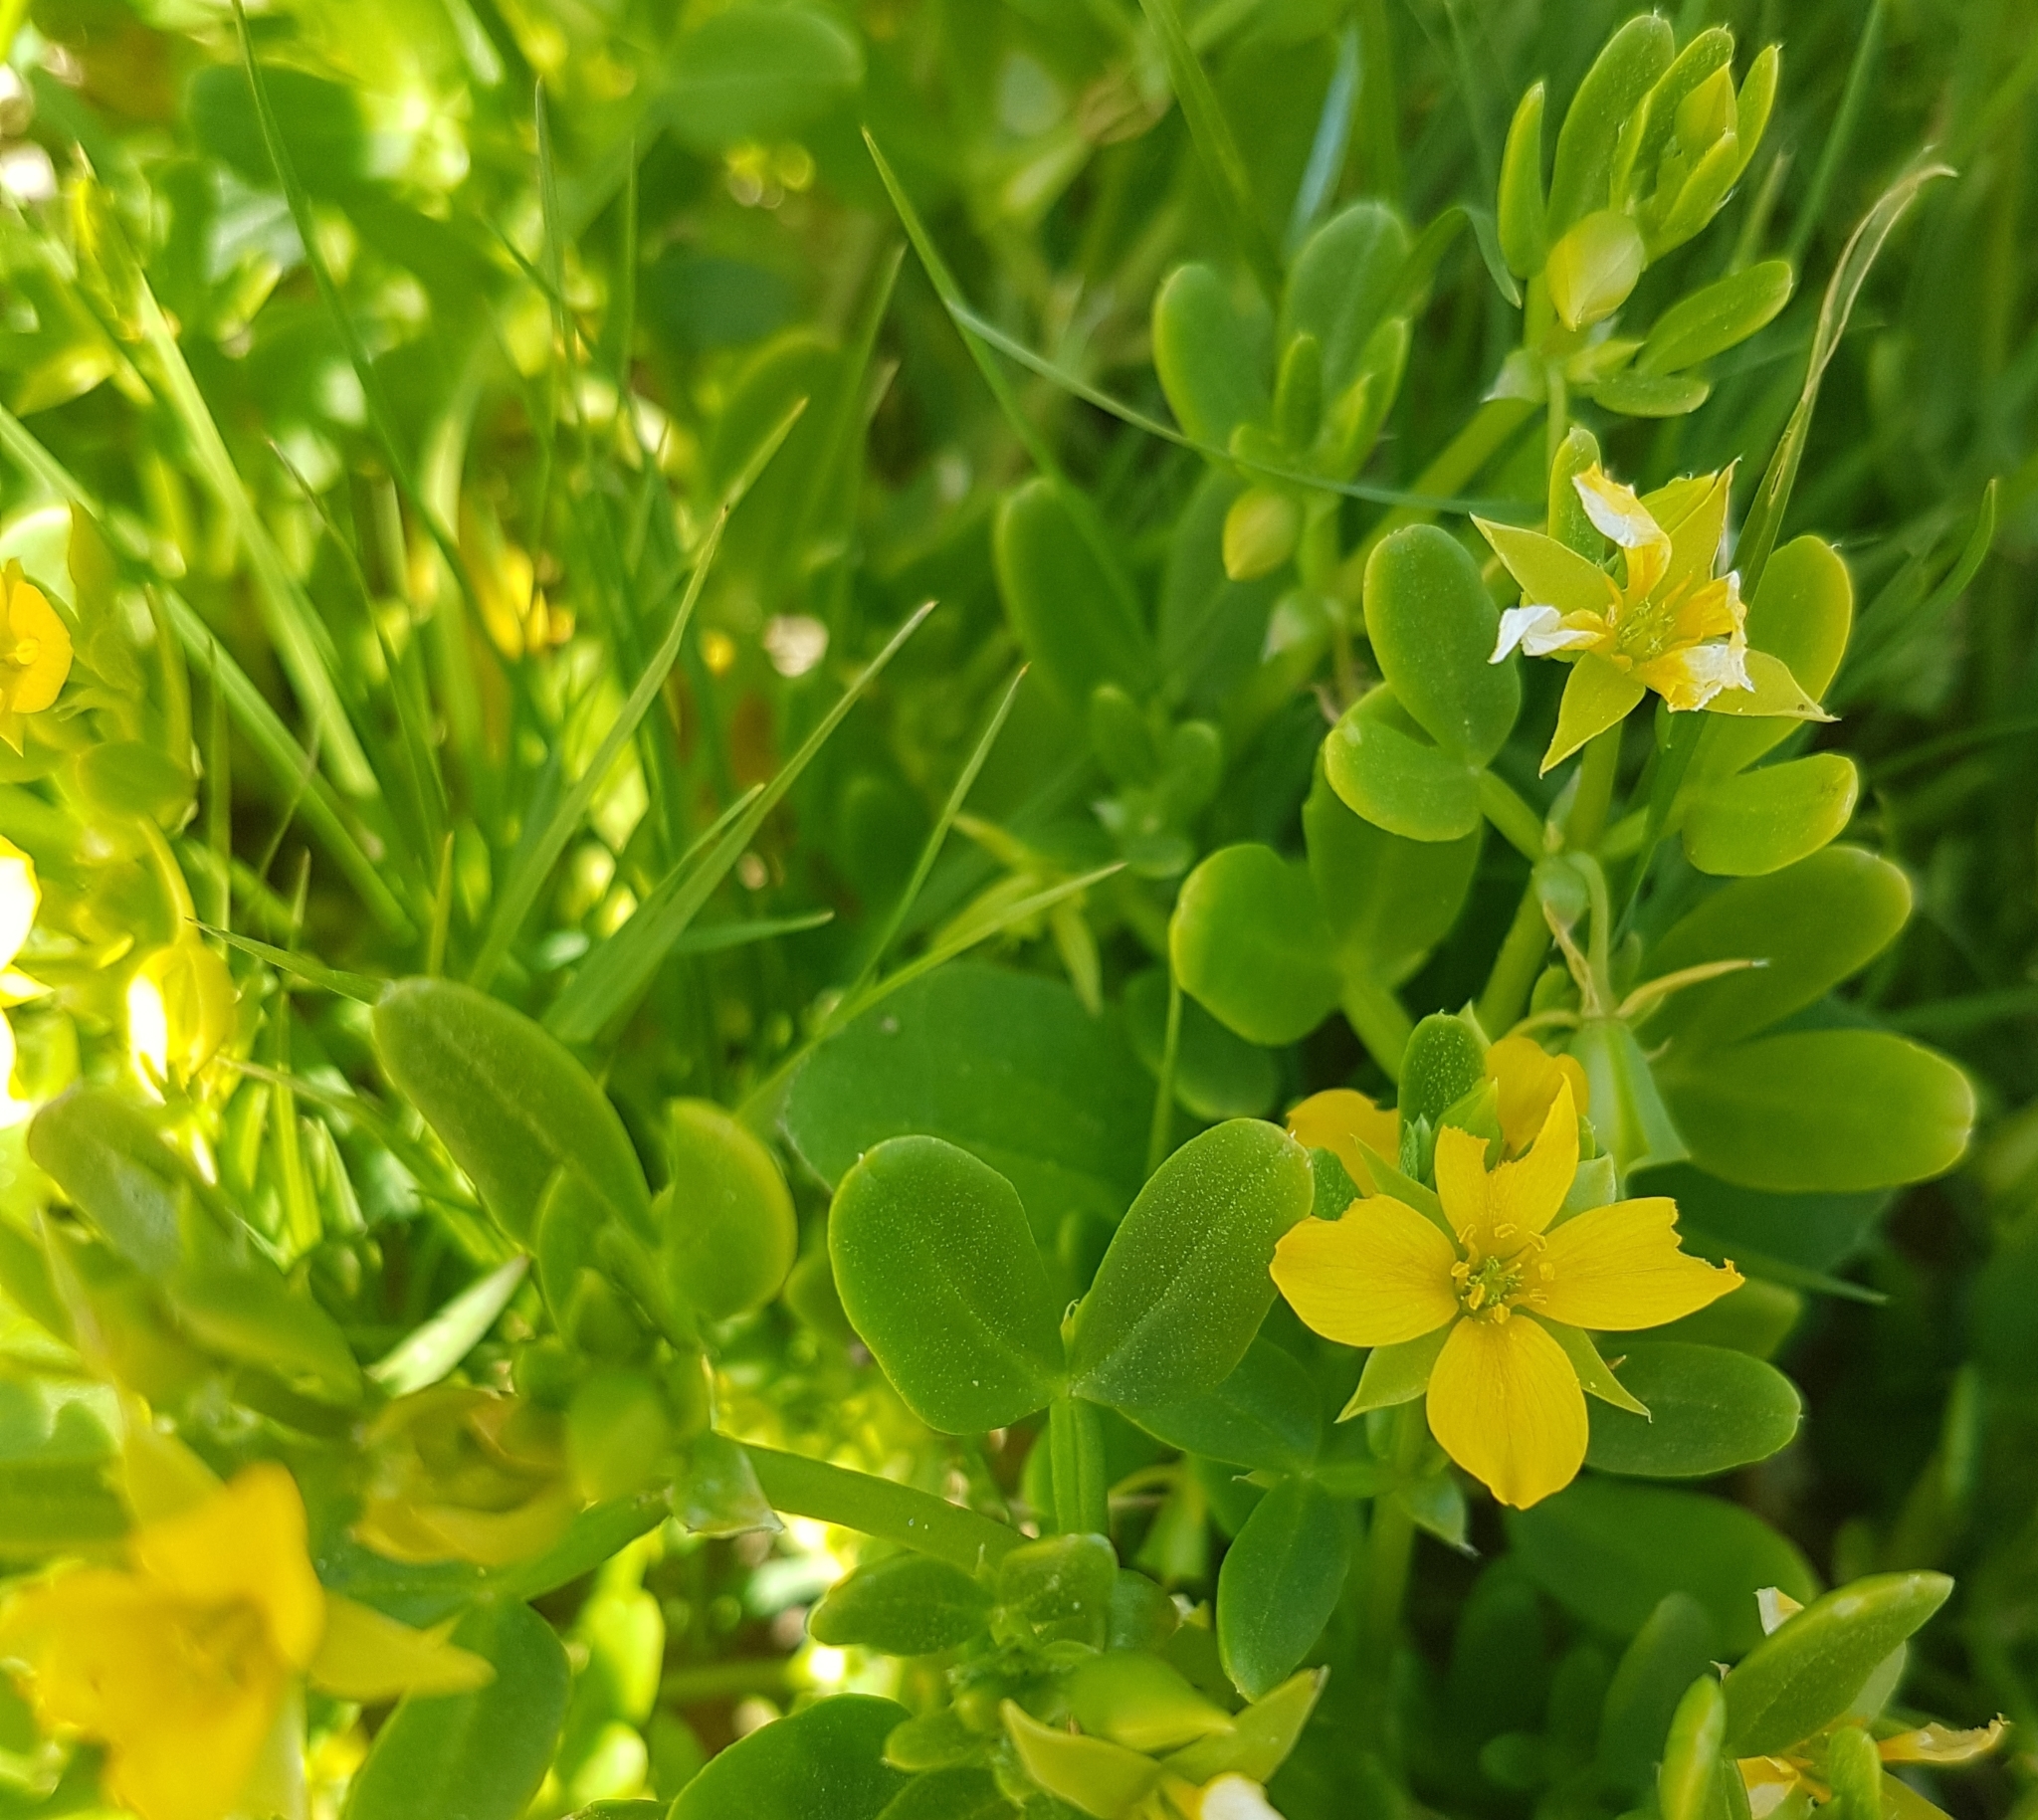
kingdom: Plantae
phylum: Tracheophyta
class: Magnoliopsida
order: Zygophyllales
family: Zygophyllaceae
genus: Roepera
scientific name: Roepera billardieri
